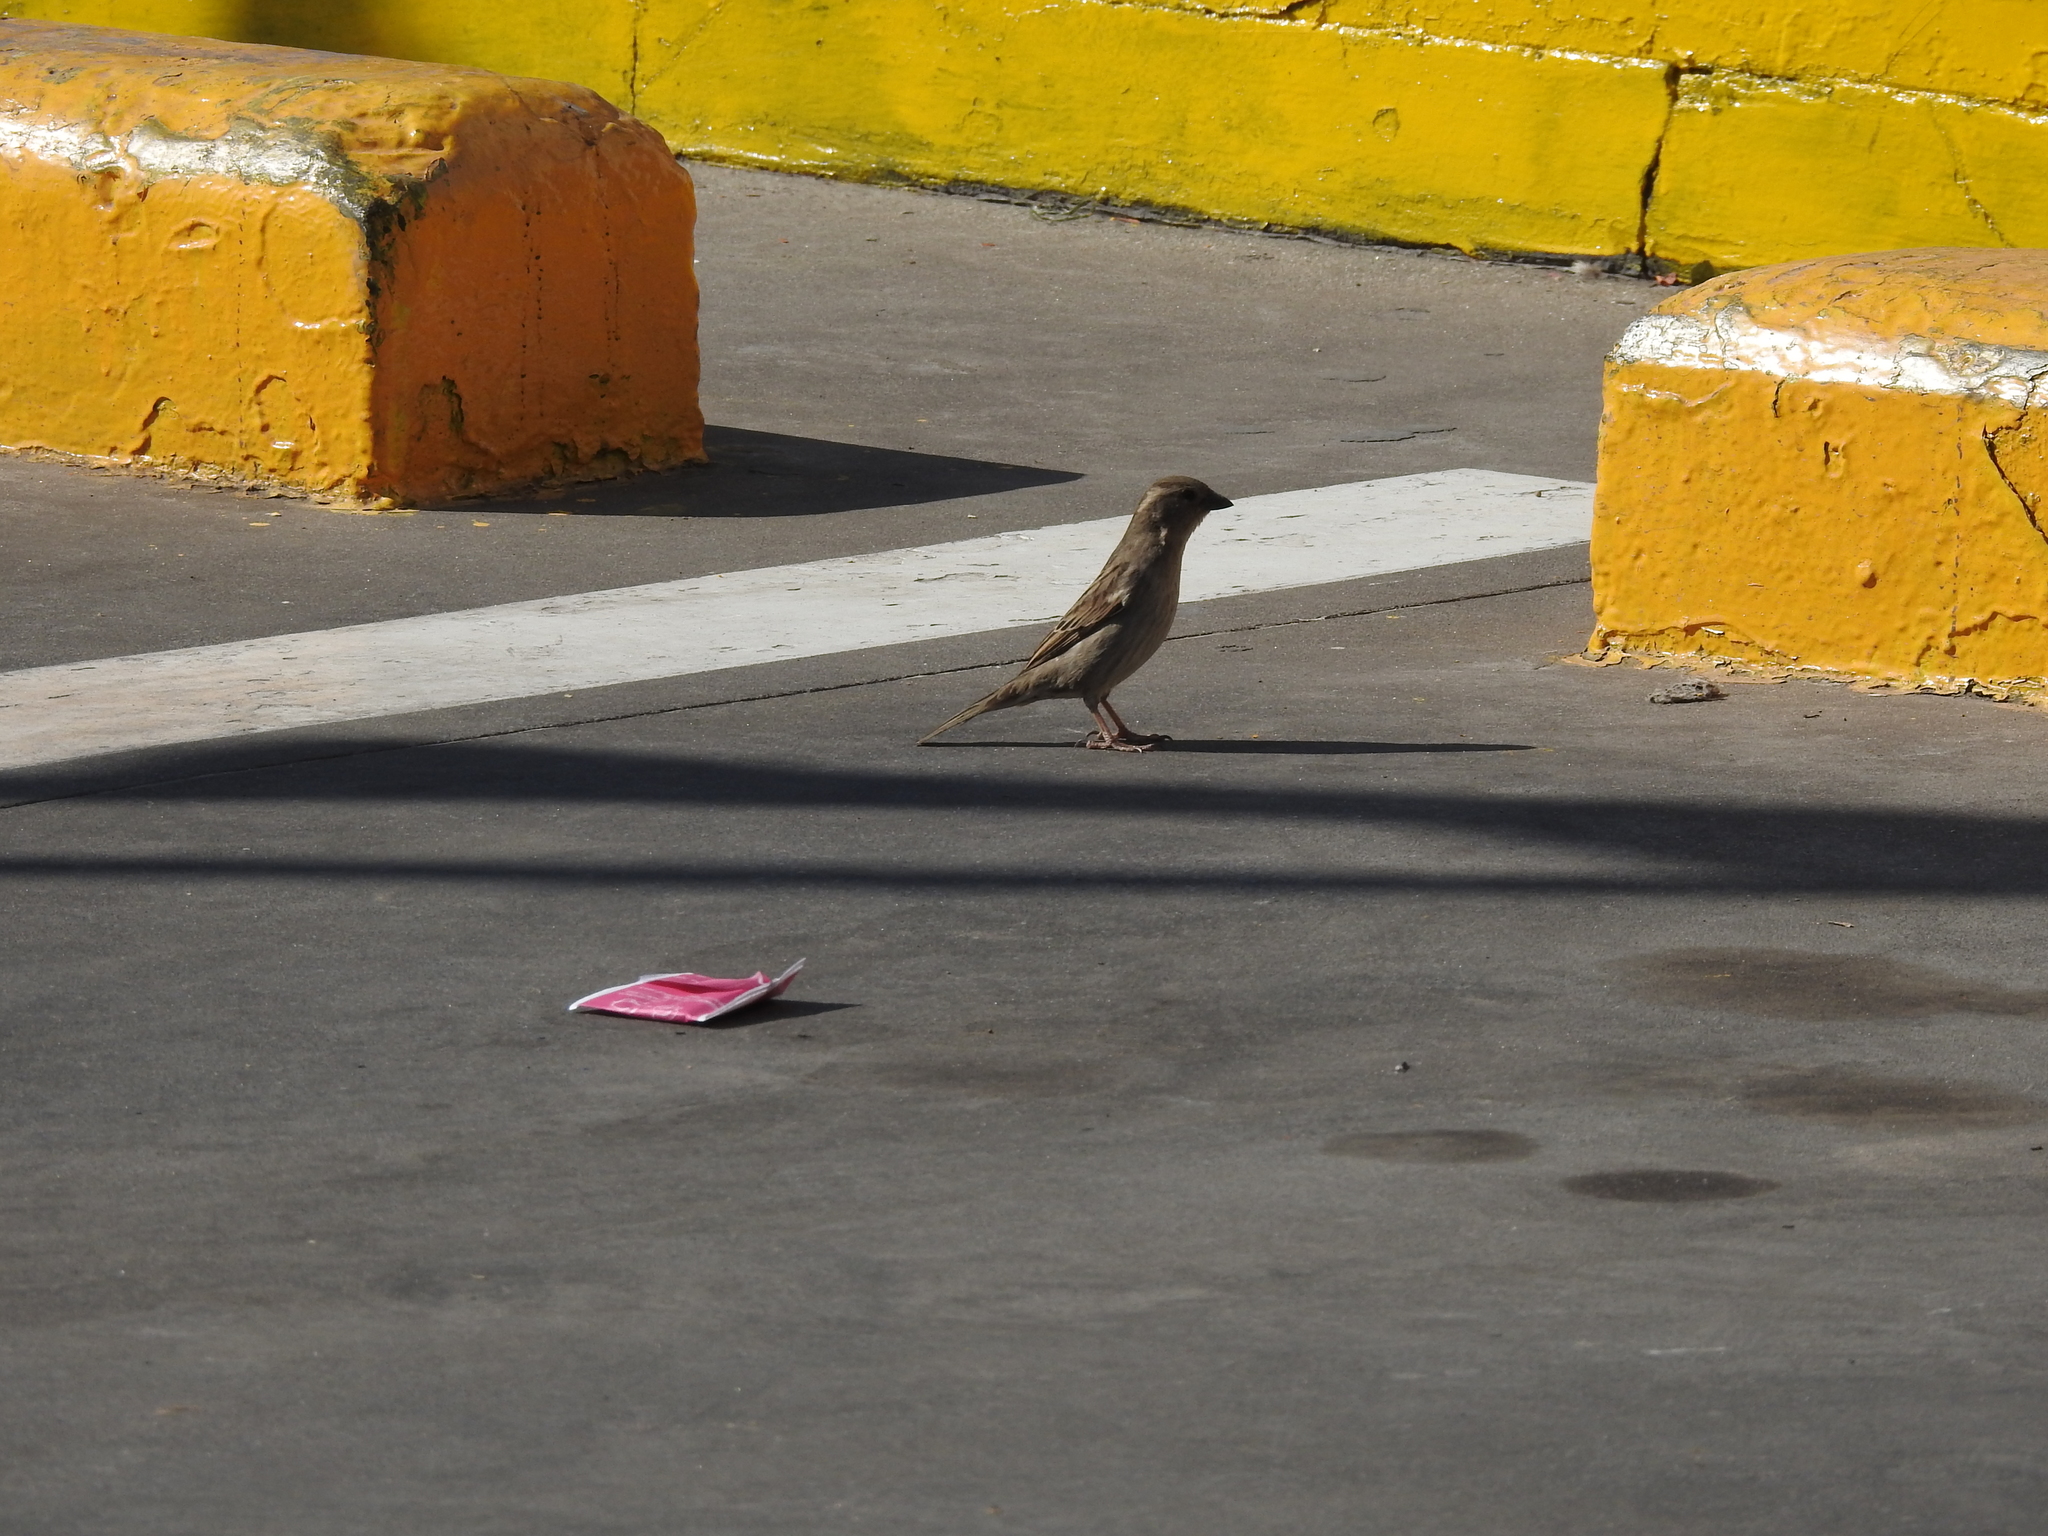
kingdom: Animalia
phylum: Chordata
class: Aves
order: Passeriformes
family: Passeridae
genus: Passer
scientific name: Passer domesticus
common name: House sparrow
